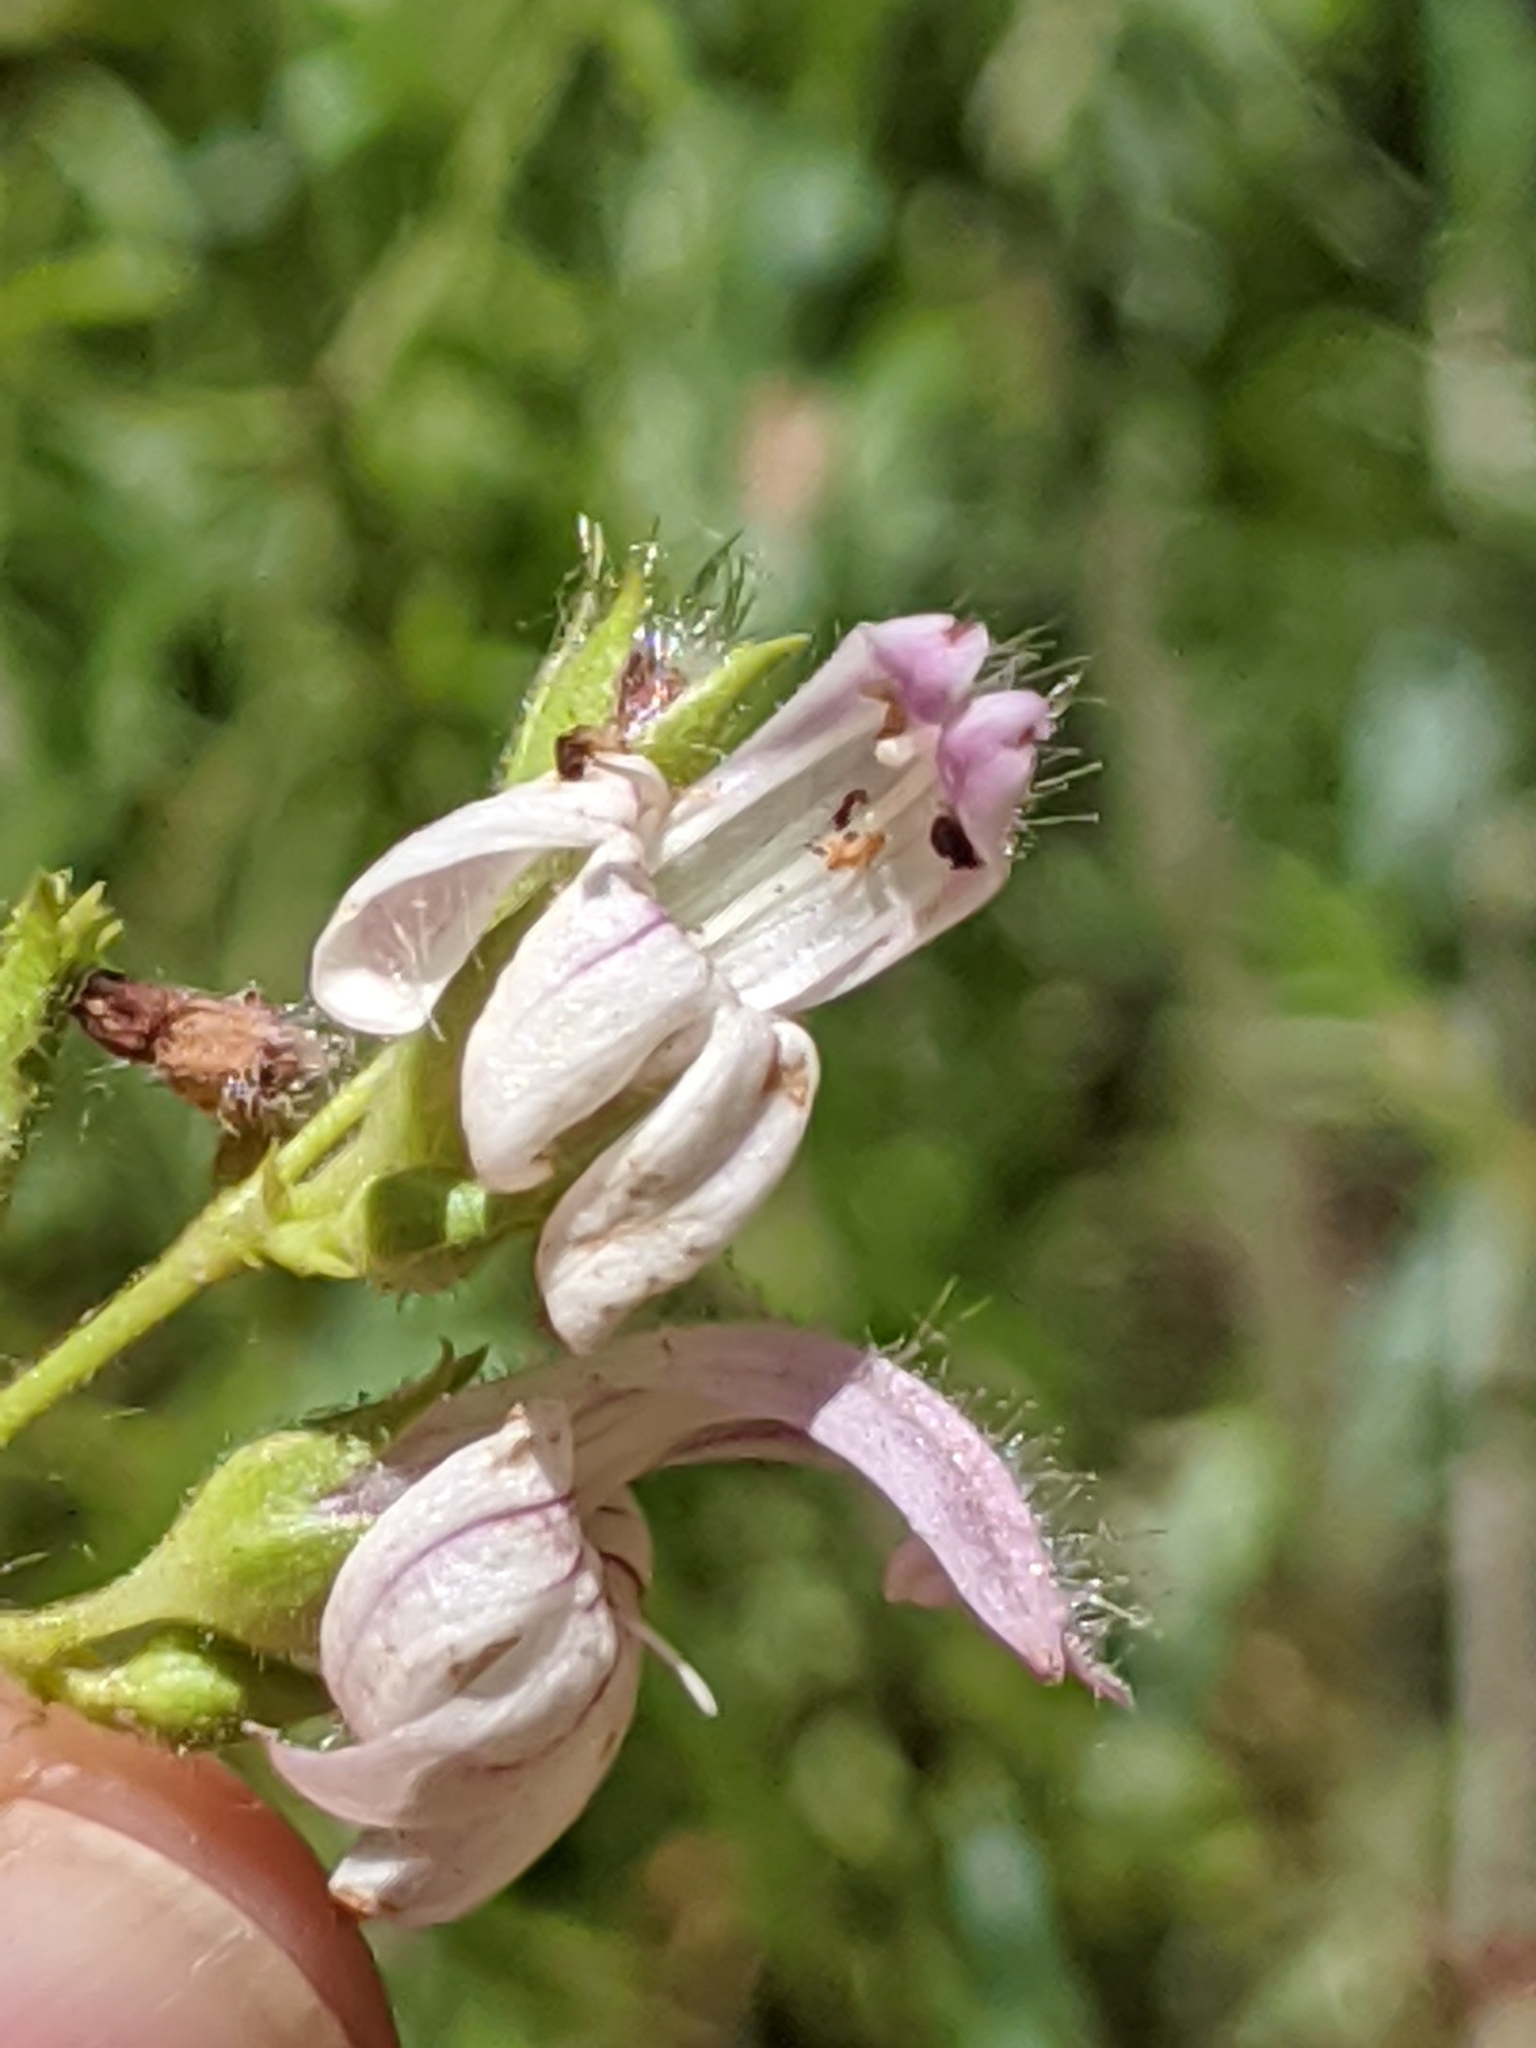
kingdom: Plantae
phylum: Tracheophyta
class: Magnoliopsida
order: Lamiales
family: Plantaginaceae
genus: Keckiella
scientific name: Keckiella breviflora
